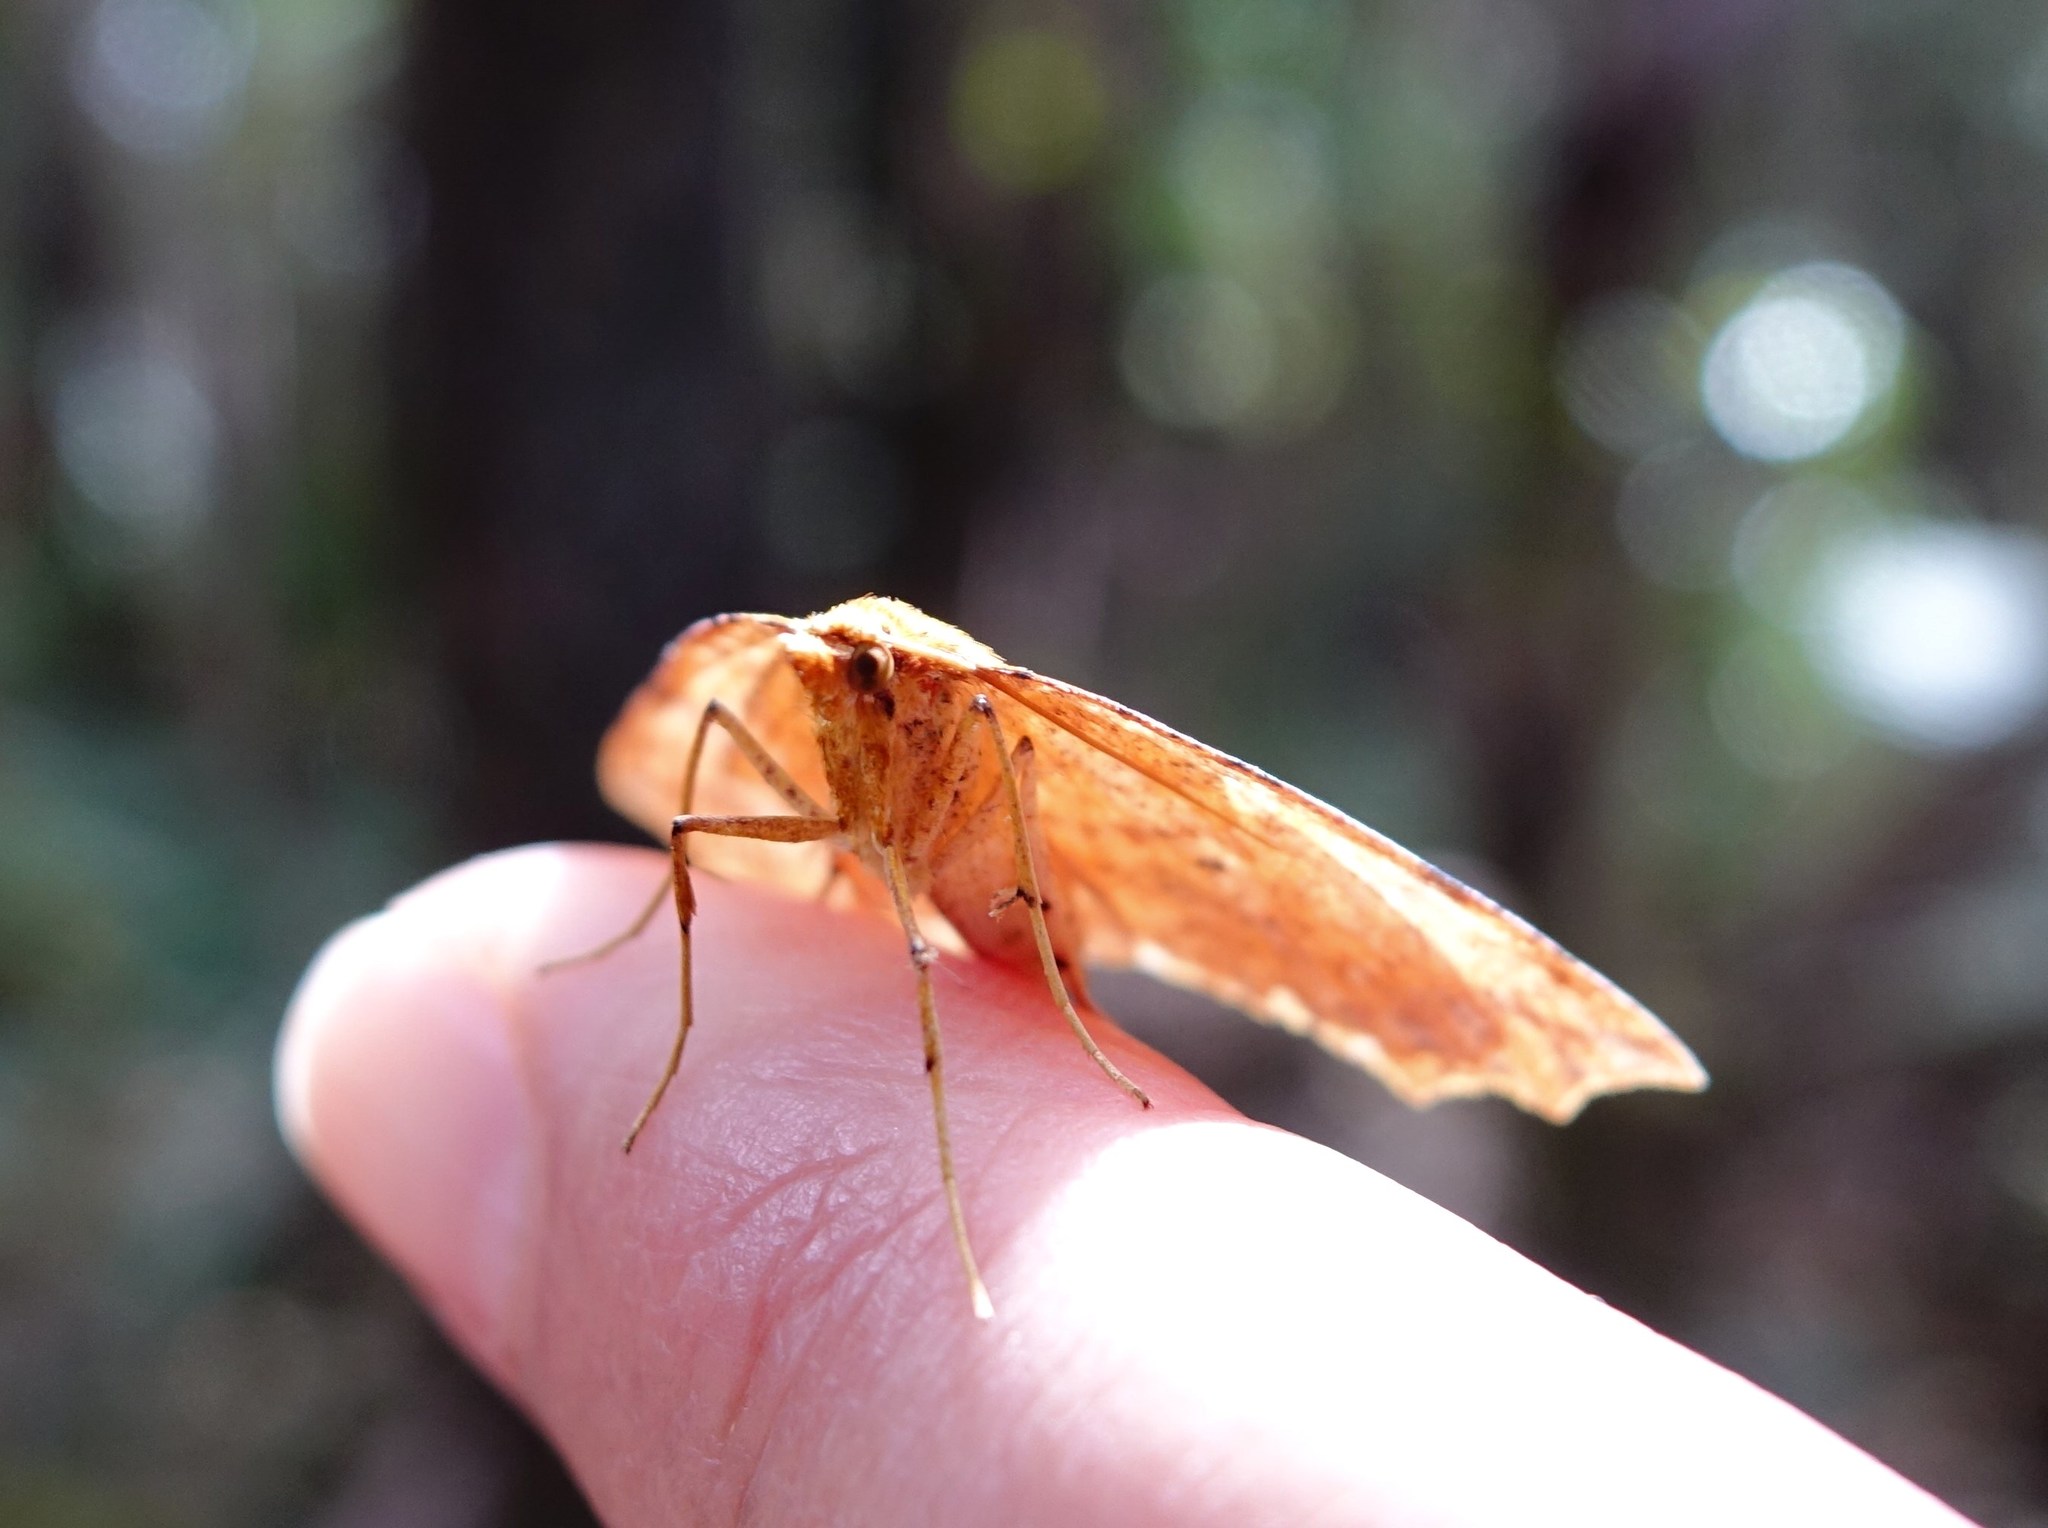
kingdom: Animalia
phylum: Arthropoda
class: Insecta
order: Lepidoptera
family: Geometridae
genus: Ischalis
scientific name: Ischalis variabilis
